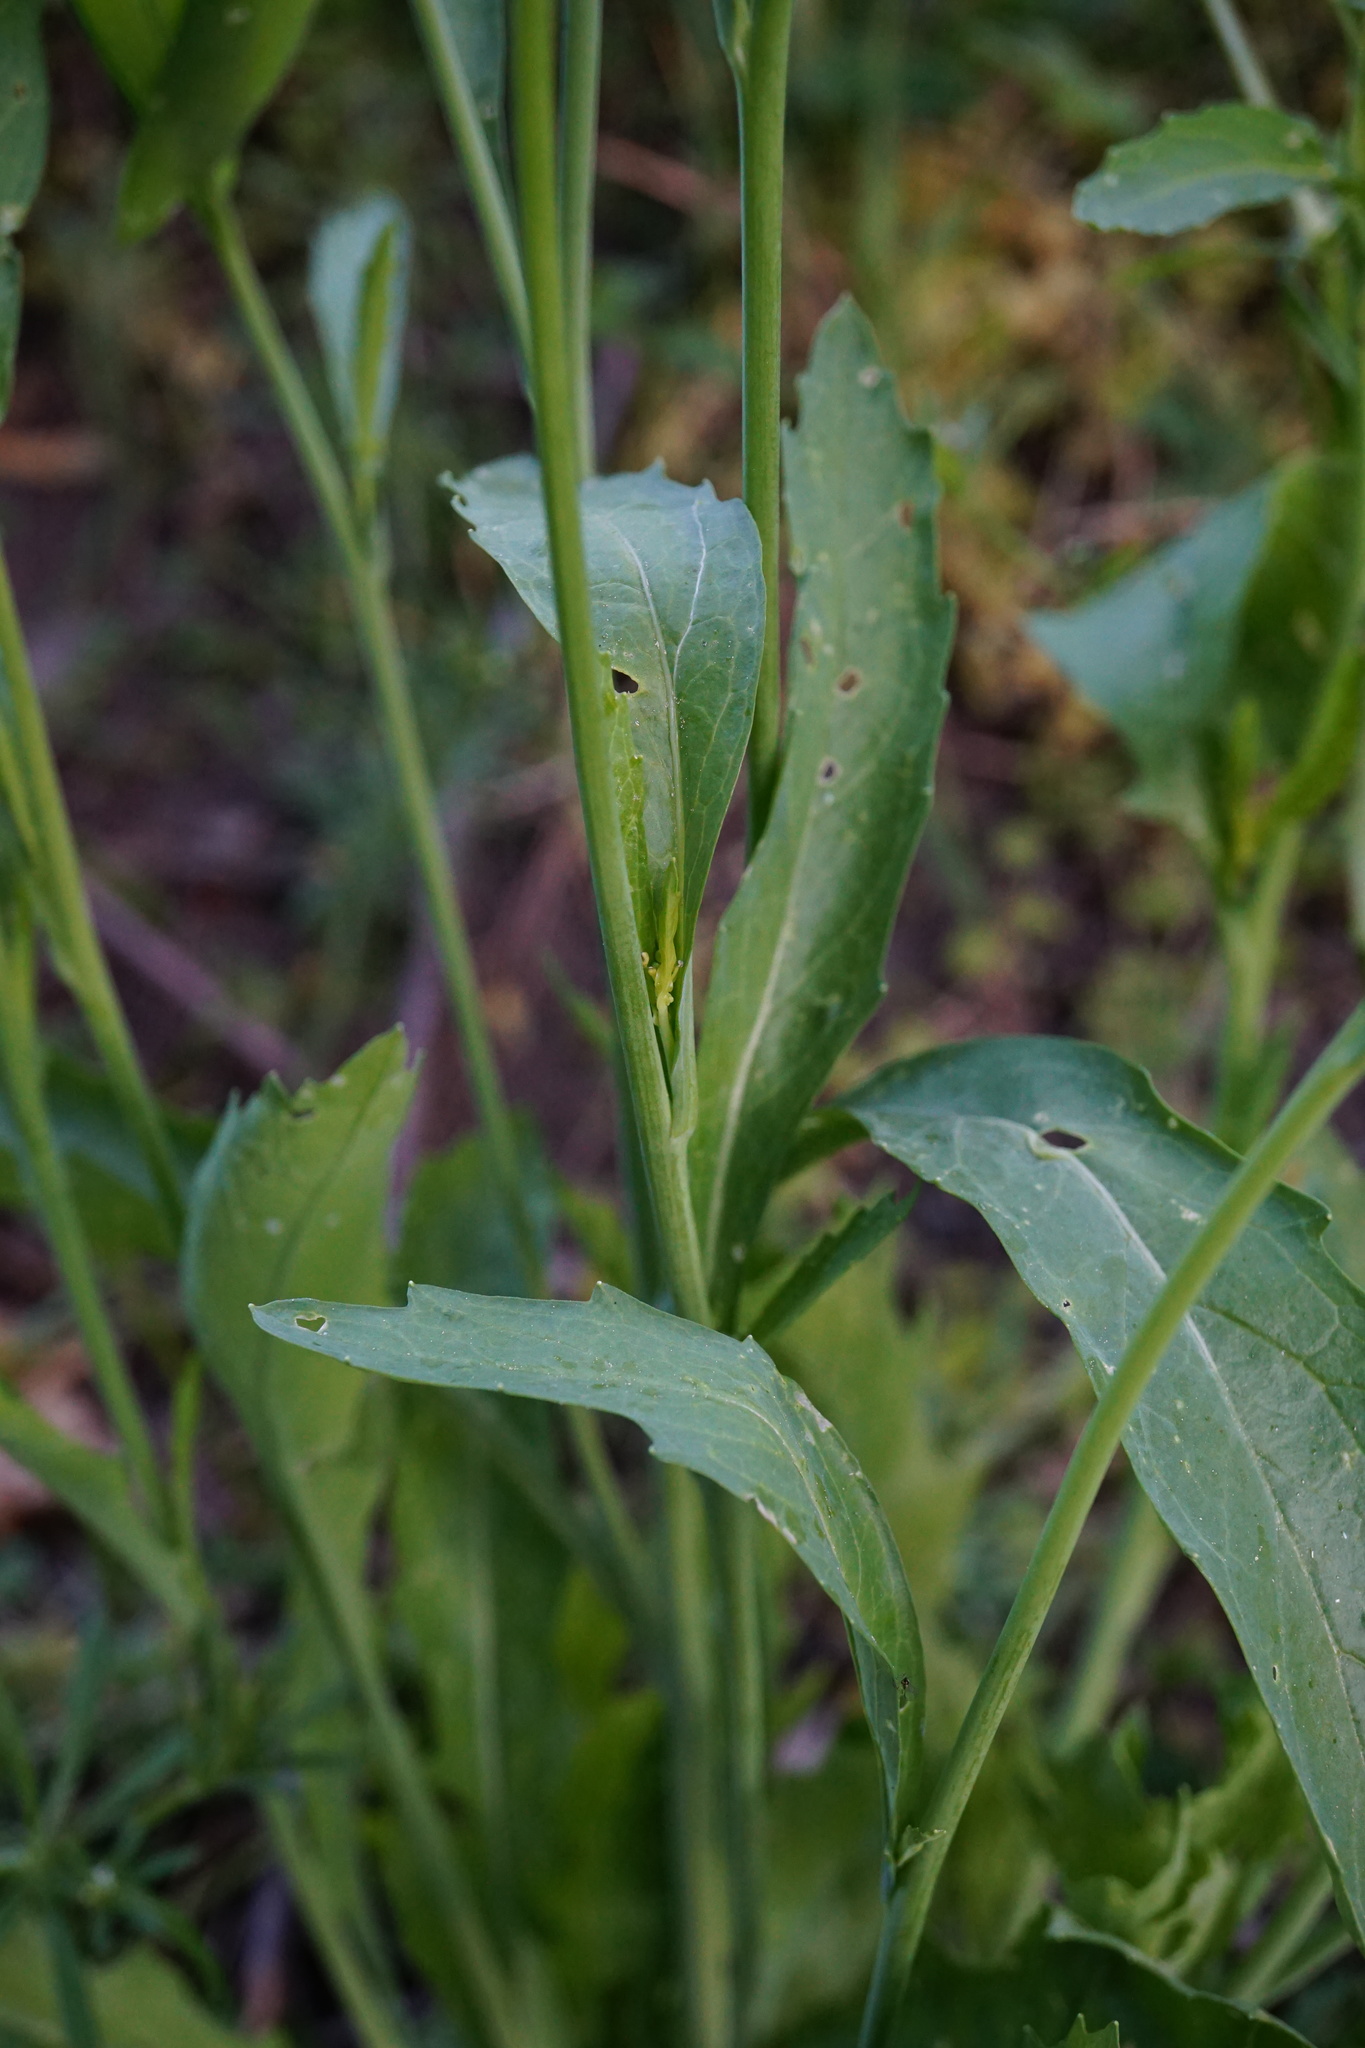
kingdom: Plantae
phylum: Tracheophyta
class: Magnoliopsida
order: Brassicales
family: Brassicaceae
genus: Brassica
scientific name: Brassica juncea
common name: Brown mustard
